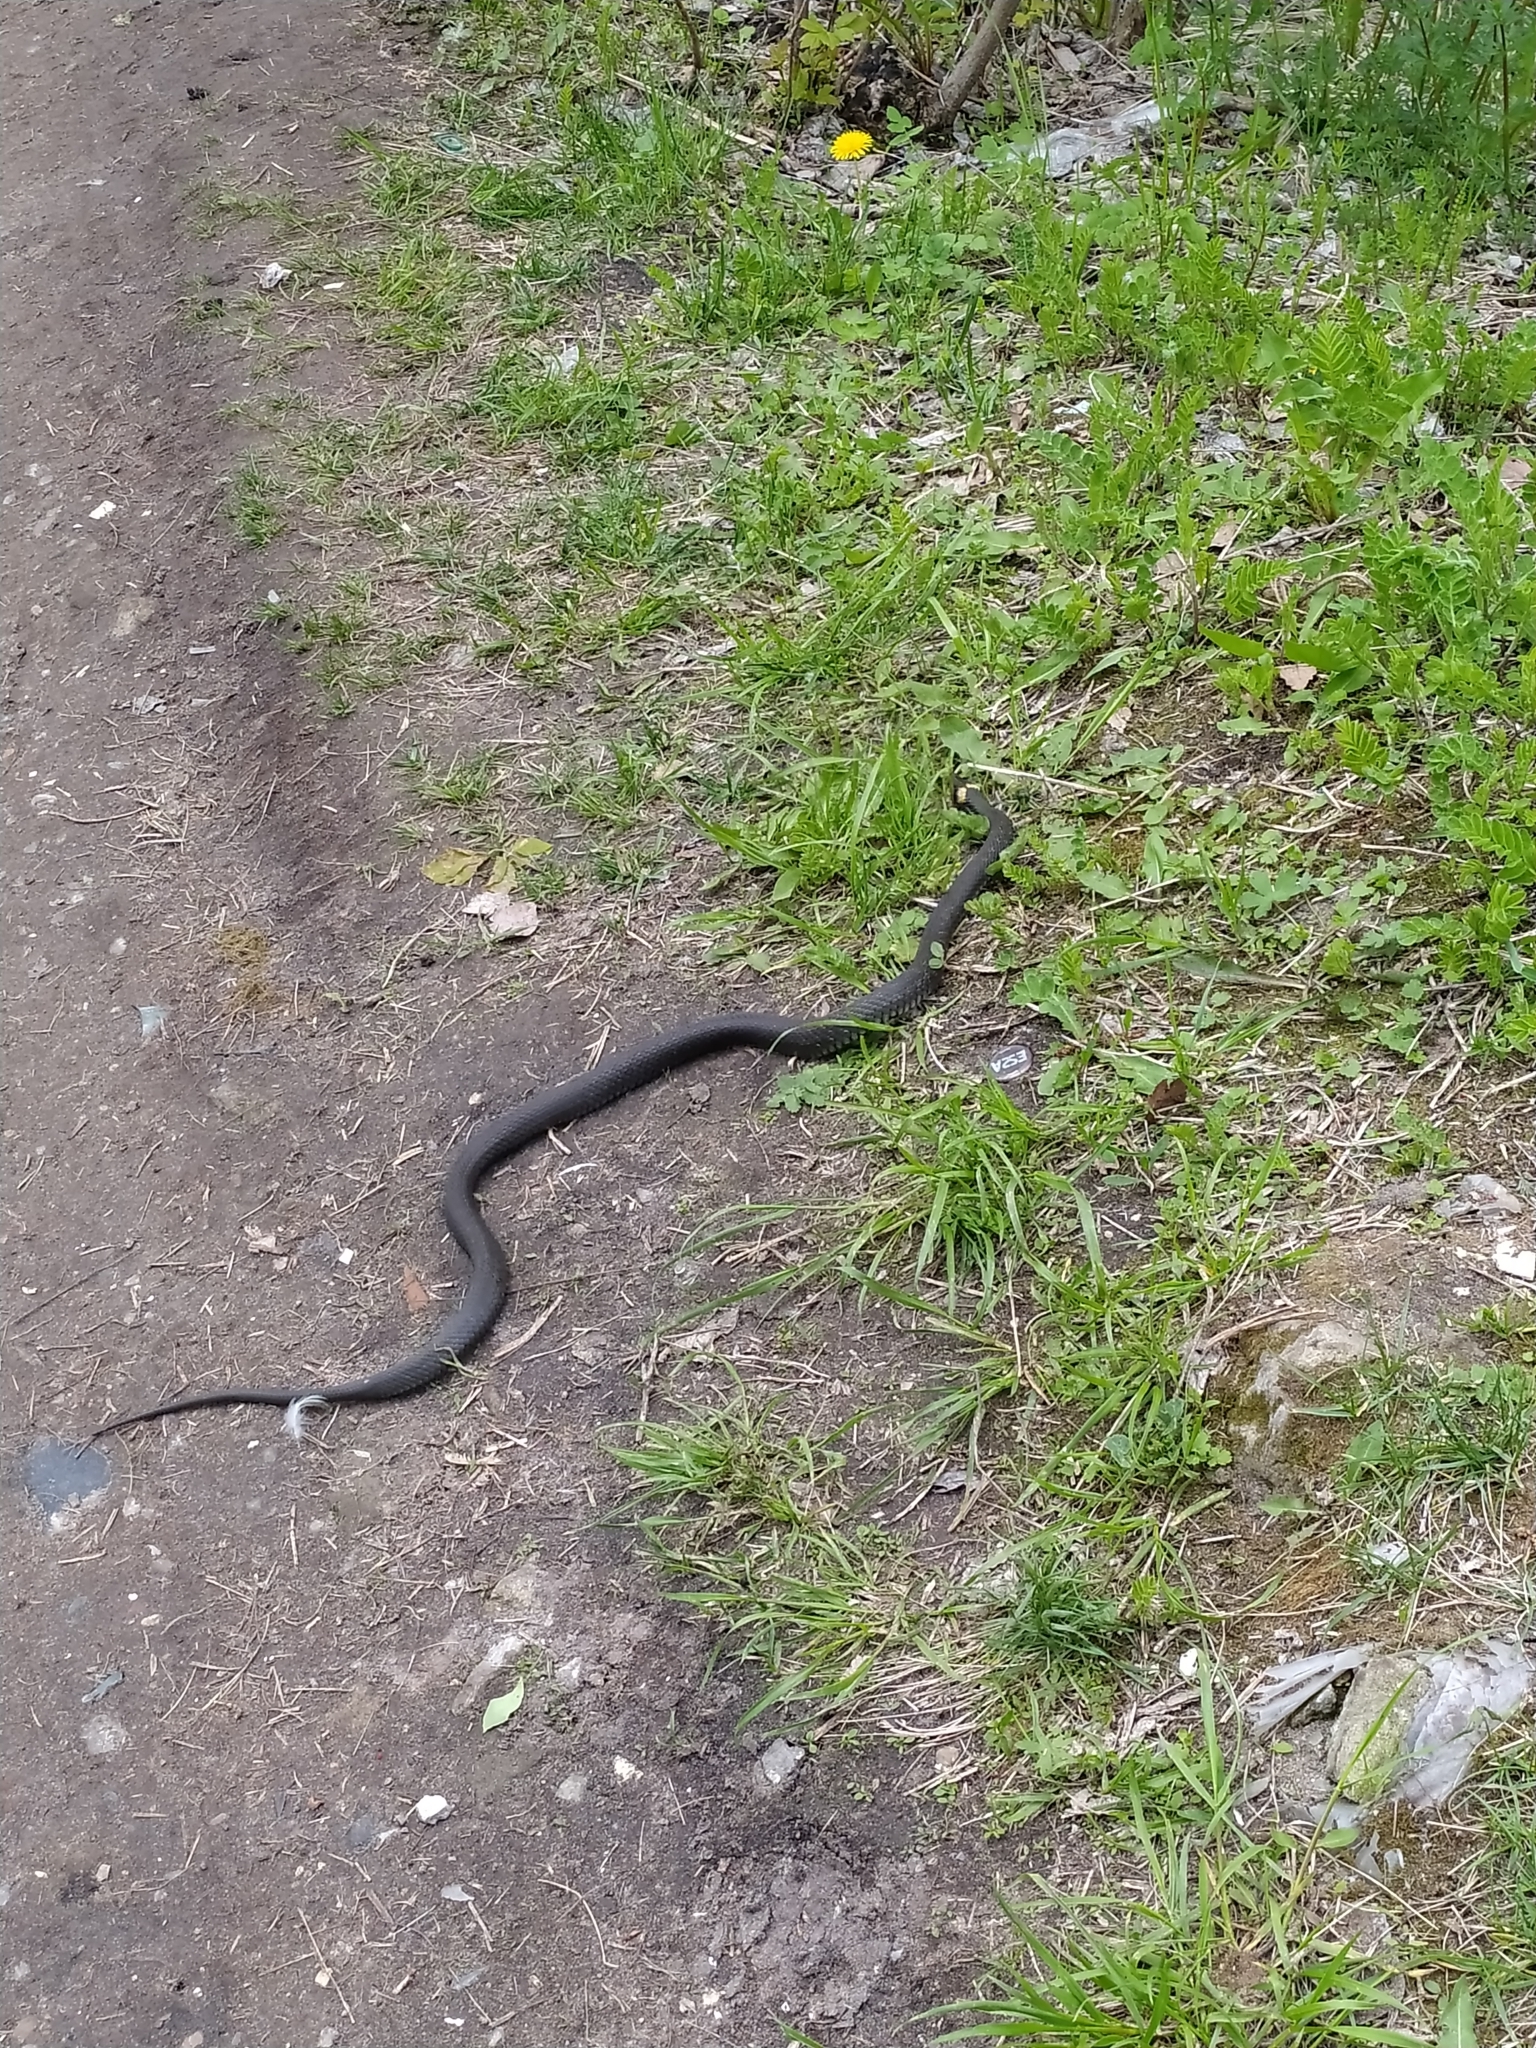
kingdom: Animalia
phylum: Chordata
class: Squamata
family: Colubridae
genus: Natrix
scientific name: Natrix natrix
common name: Grass snake
